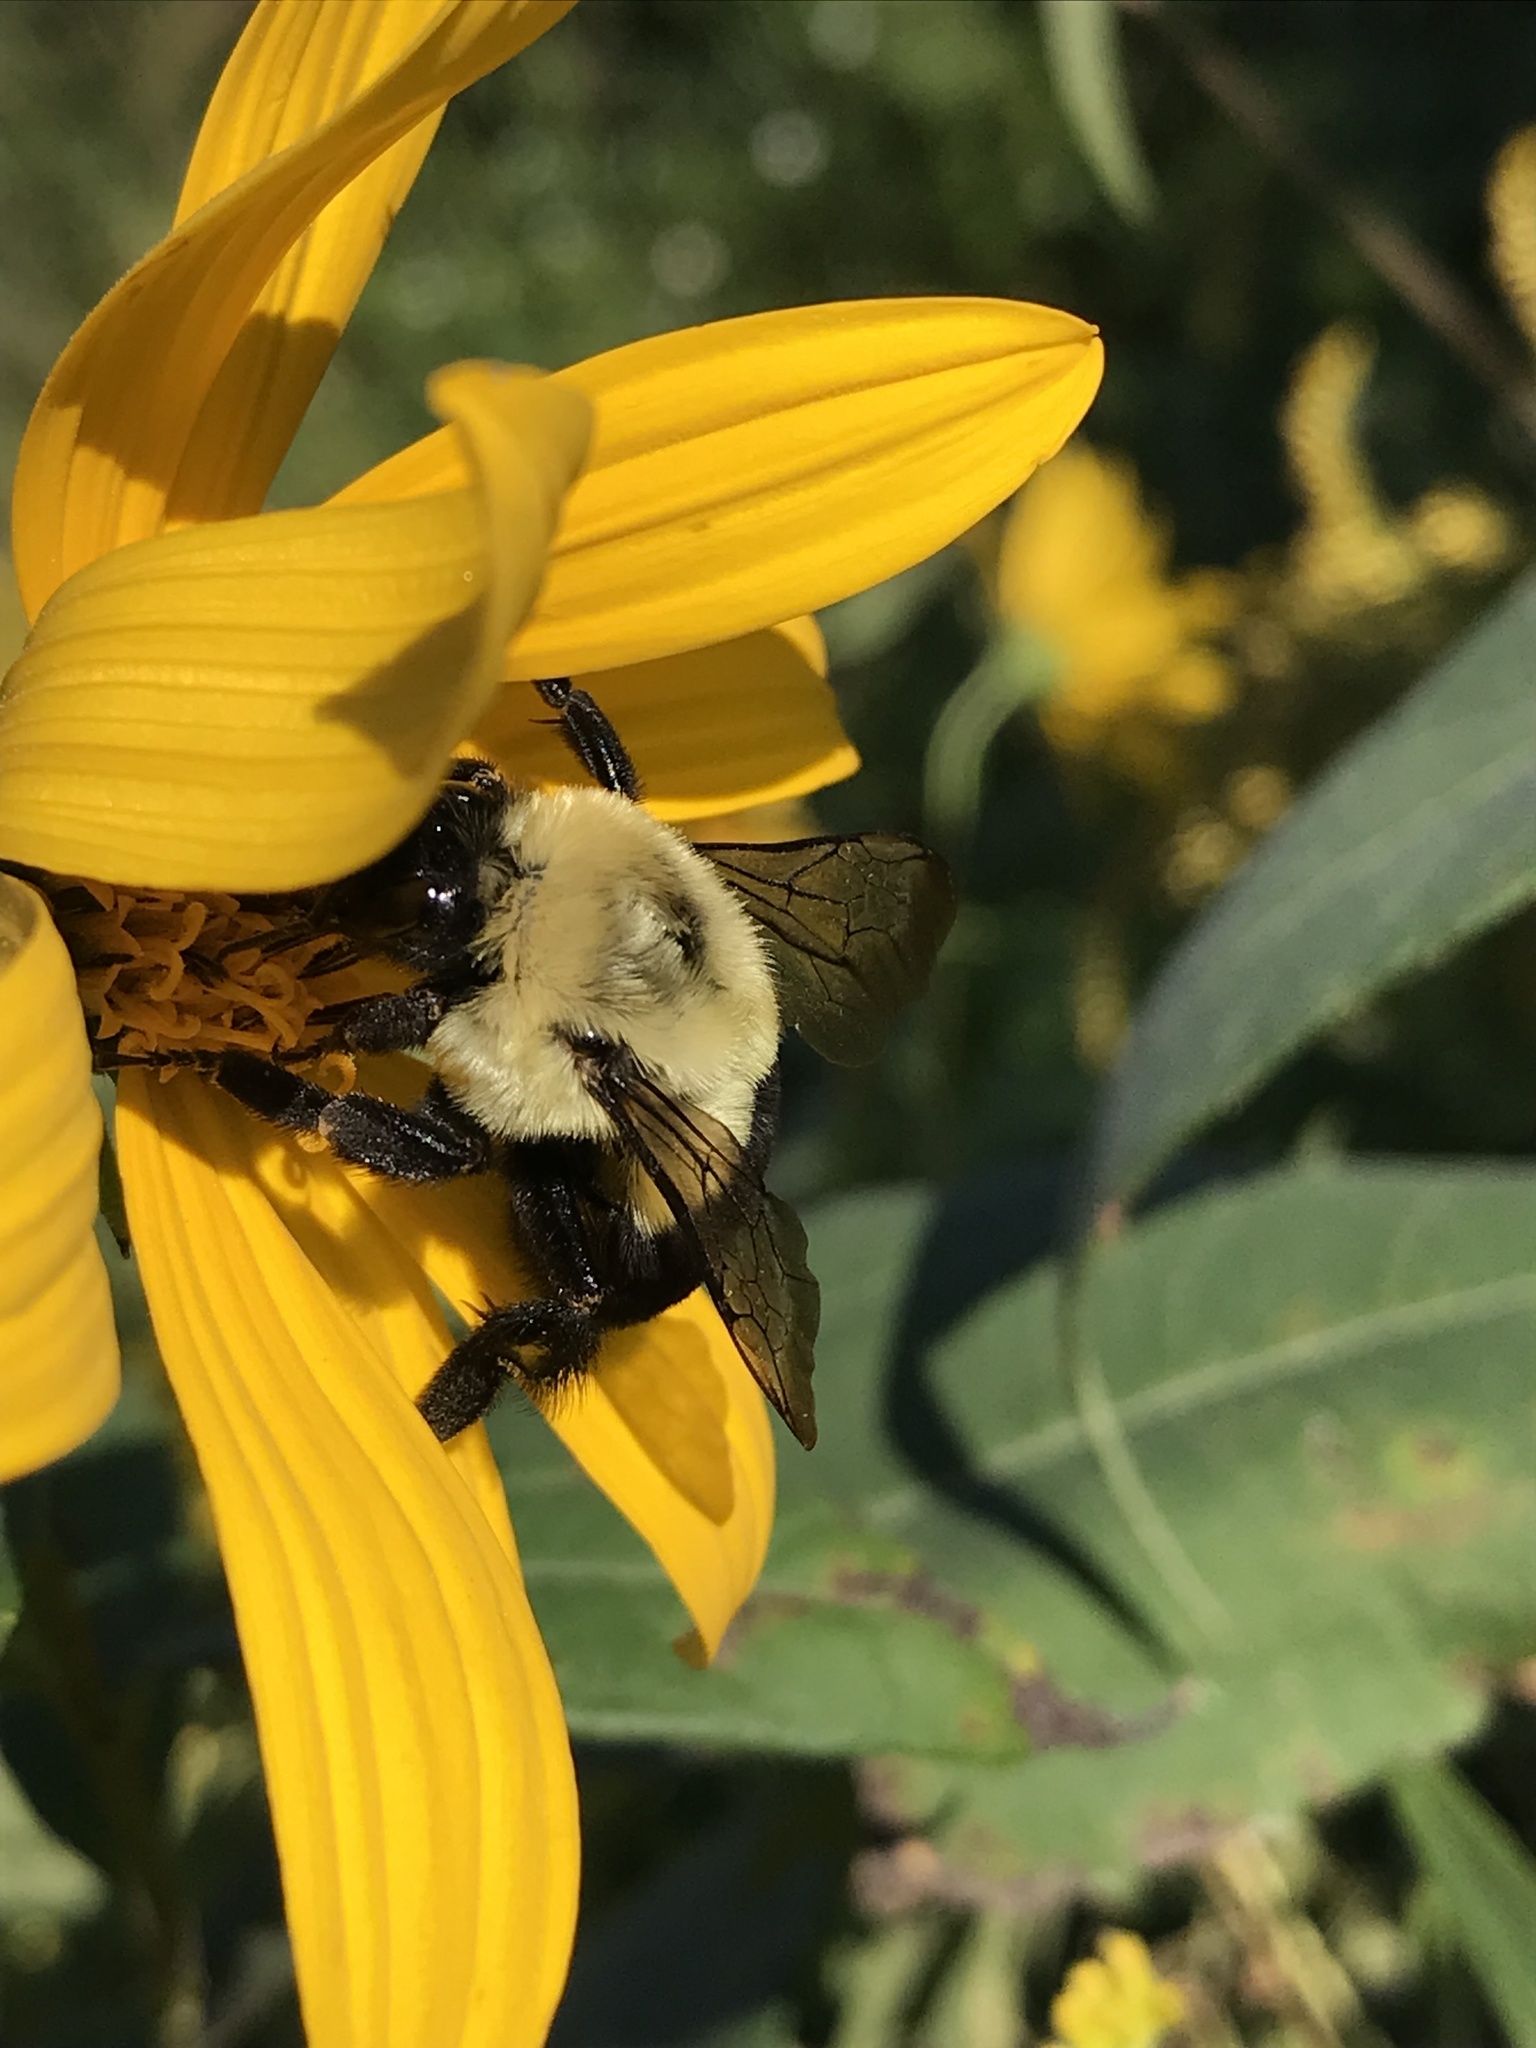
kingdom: Animalia
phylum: Arthropoda
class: Insecta
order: Hymenoptera
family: Apidae
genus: Bombus
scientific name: Bombus impatiens
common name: Common eastern bumble bee
